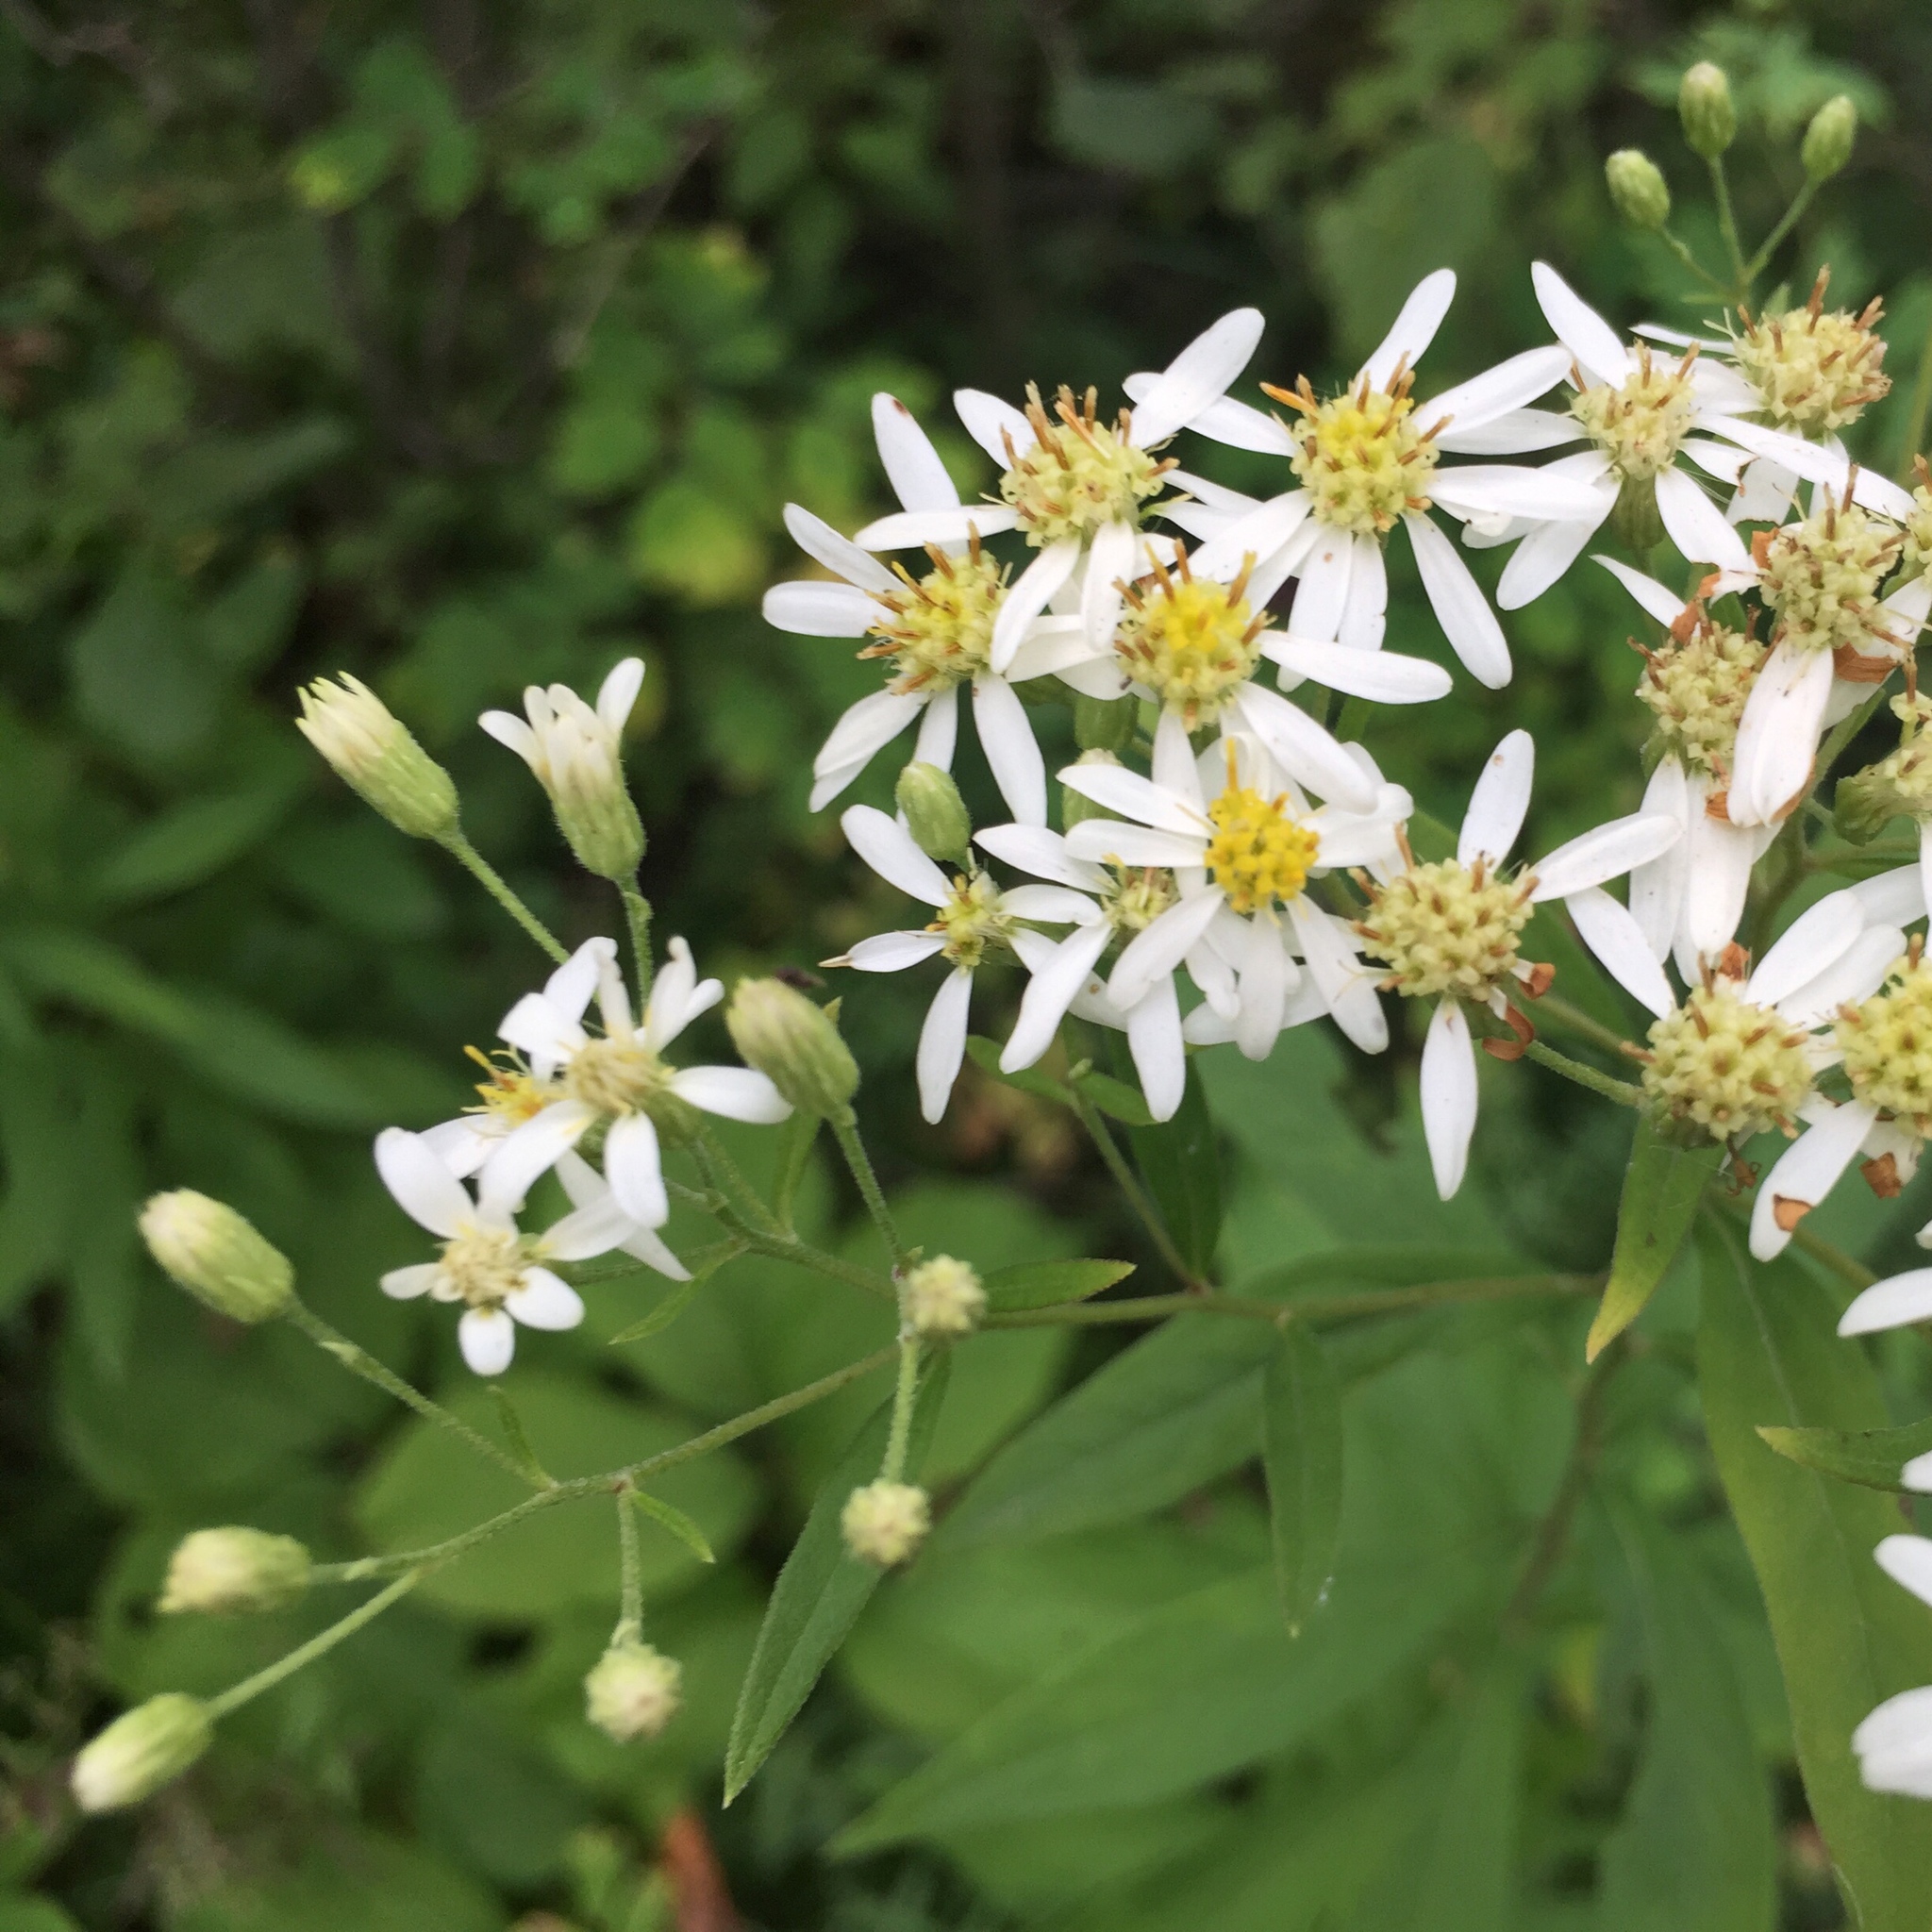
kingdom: Plantae
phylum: Tracheophyta
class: Magnoliopsida
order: Asterales
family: Asteraceae
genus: Doellingeria
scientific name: Doellingeria umbellata
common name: Flat-top white aster
